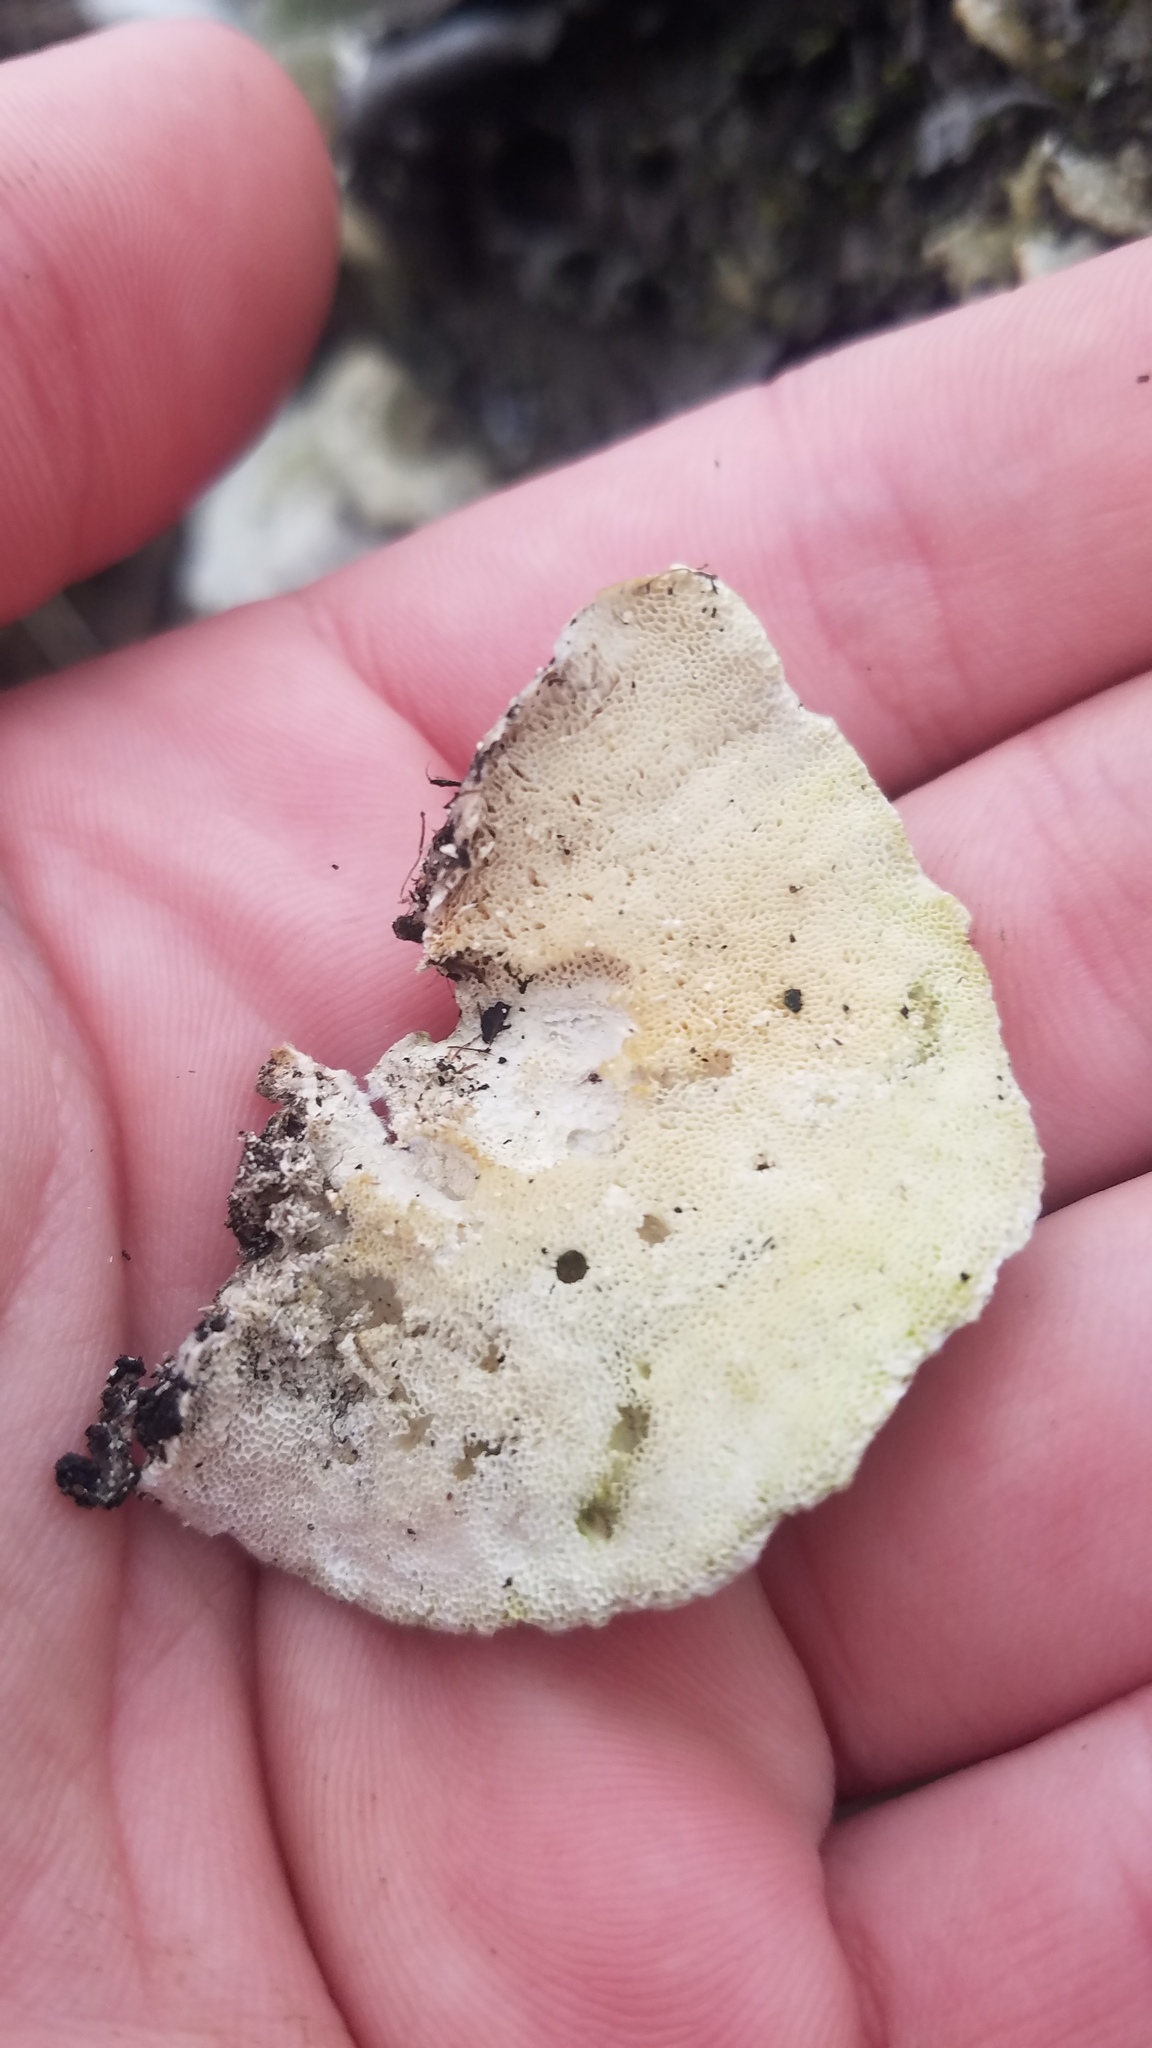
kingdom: Fungi
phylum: Basidiomycota
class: Agaricomycetes
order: Polyporales
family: Polyporaceae
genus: Trametes
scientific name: Trametes hirsuta
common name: Hairy bracket
